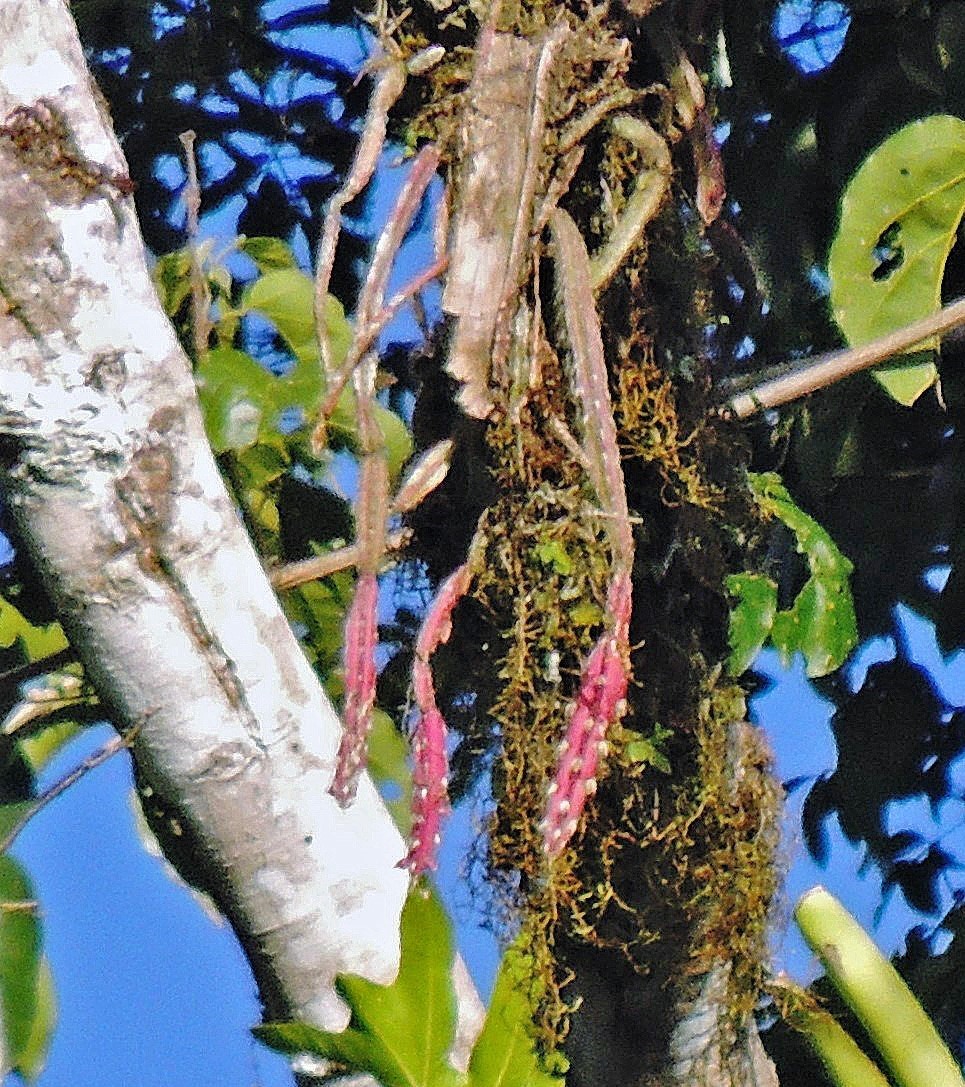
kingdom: Plantae
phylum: Tracheophyta
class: Magnoliopsida
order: Caryophyllales
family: Cactaceae
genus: Lepismium
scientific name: Lepismium cruciforme
